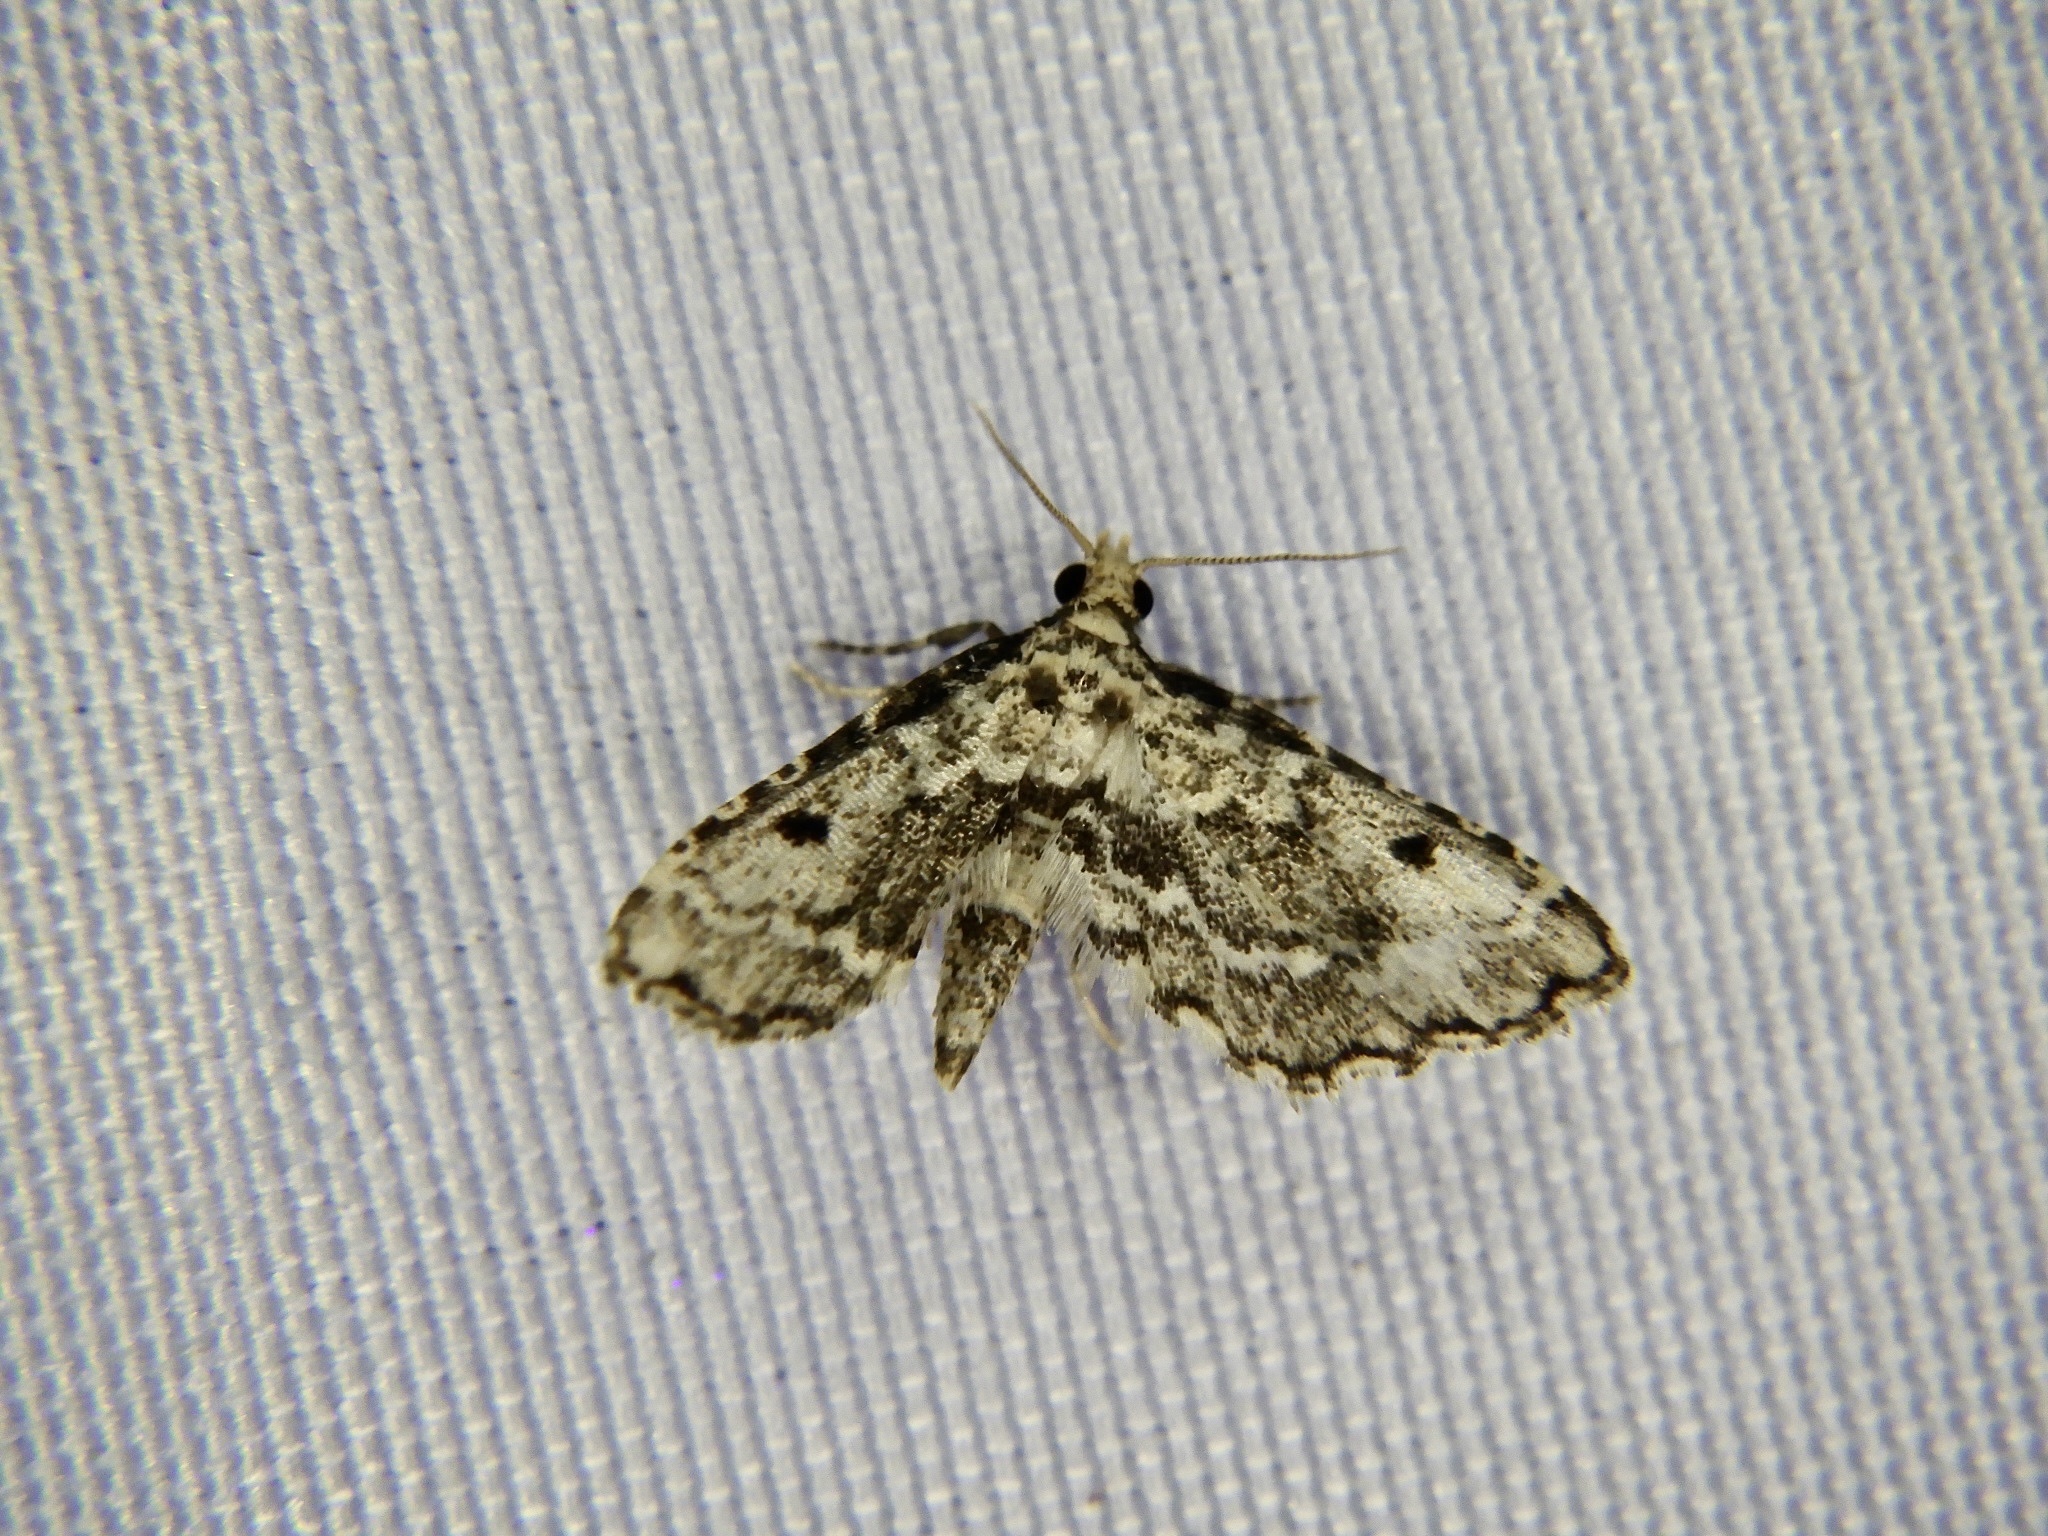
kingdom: Animalia
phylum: Arthropoda
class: Insecta
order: Lepidoptera
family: Crambidae
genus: Sufetula
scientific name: Sufetula sunidesalis
